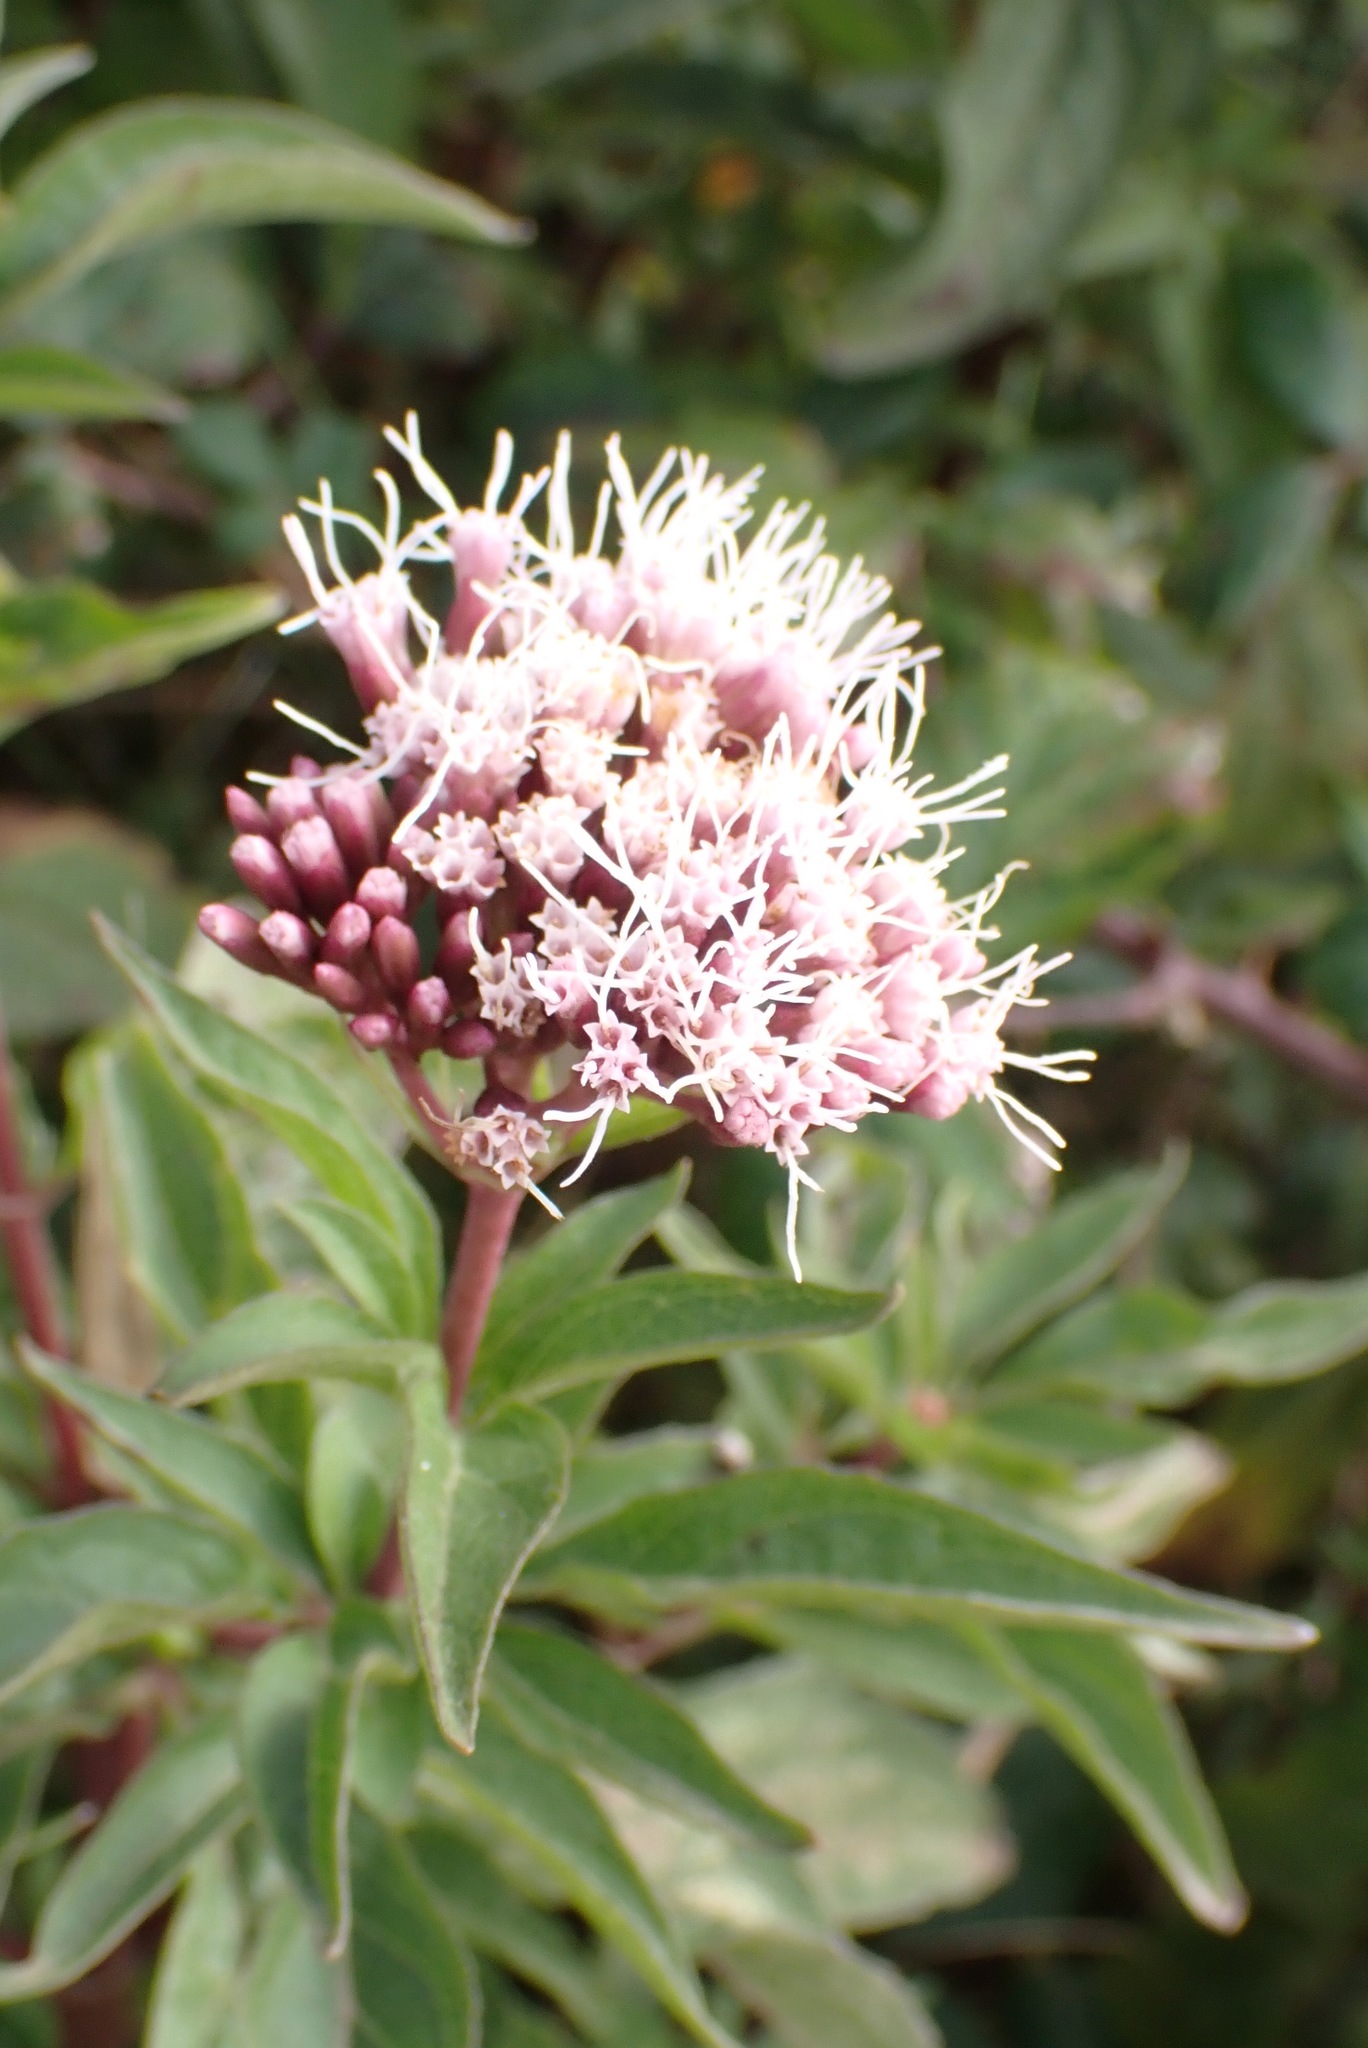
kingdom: Plantae
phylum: Tracheophyta
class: Magnoliopsida
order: Asterales
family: Asteraceae
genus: Eupatorium
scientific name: Eupatorium cannabinum
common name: Hemp-agrimony
